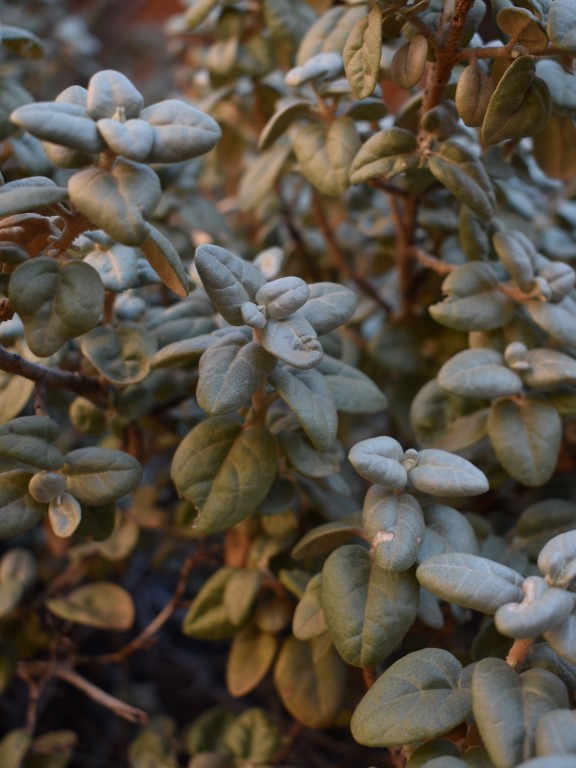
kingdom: Plantae
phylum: Tracheophyta
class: Magnoliopsida
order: Rosales
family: Elaeagnaceae
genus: Shepherdia
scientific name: Shepherdia rotundifolia
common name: Silverscale
